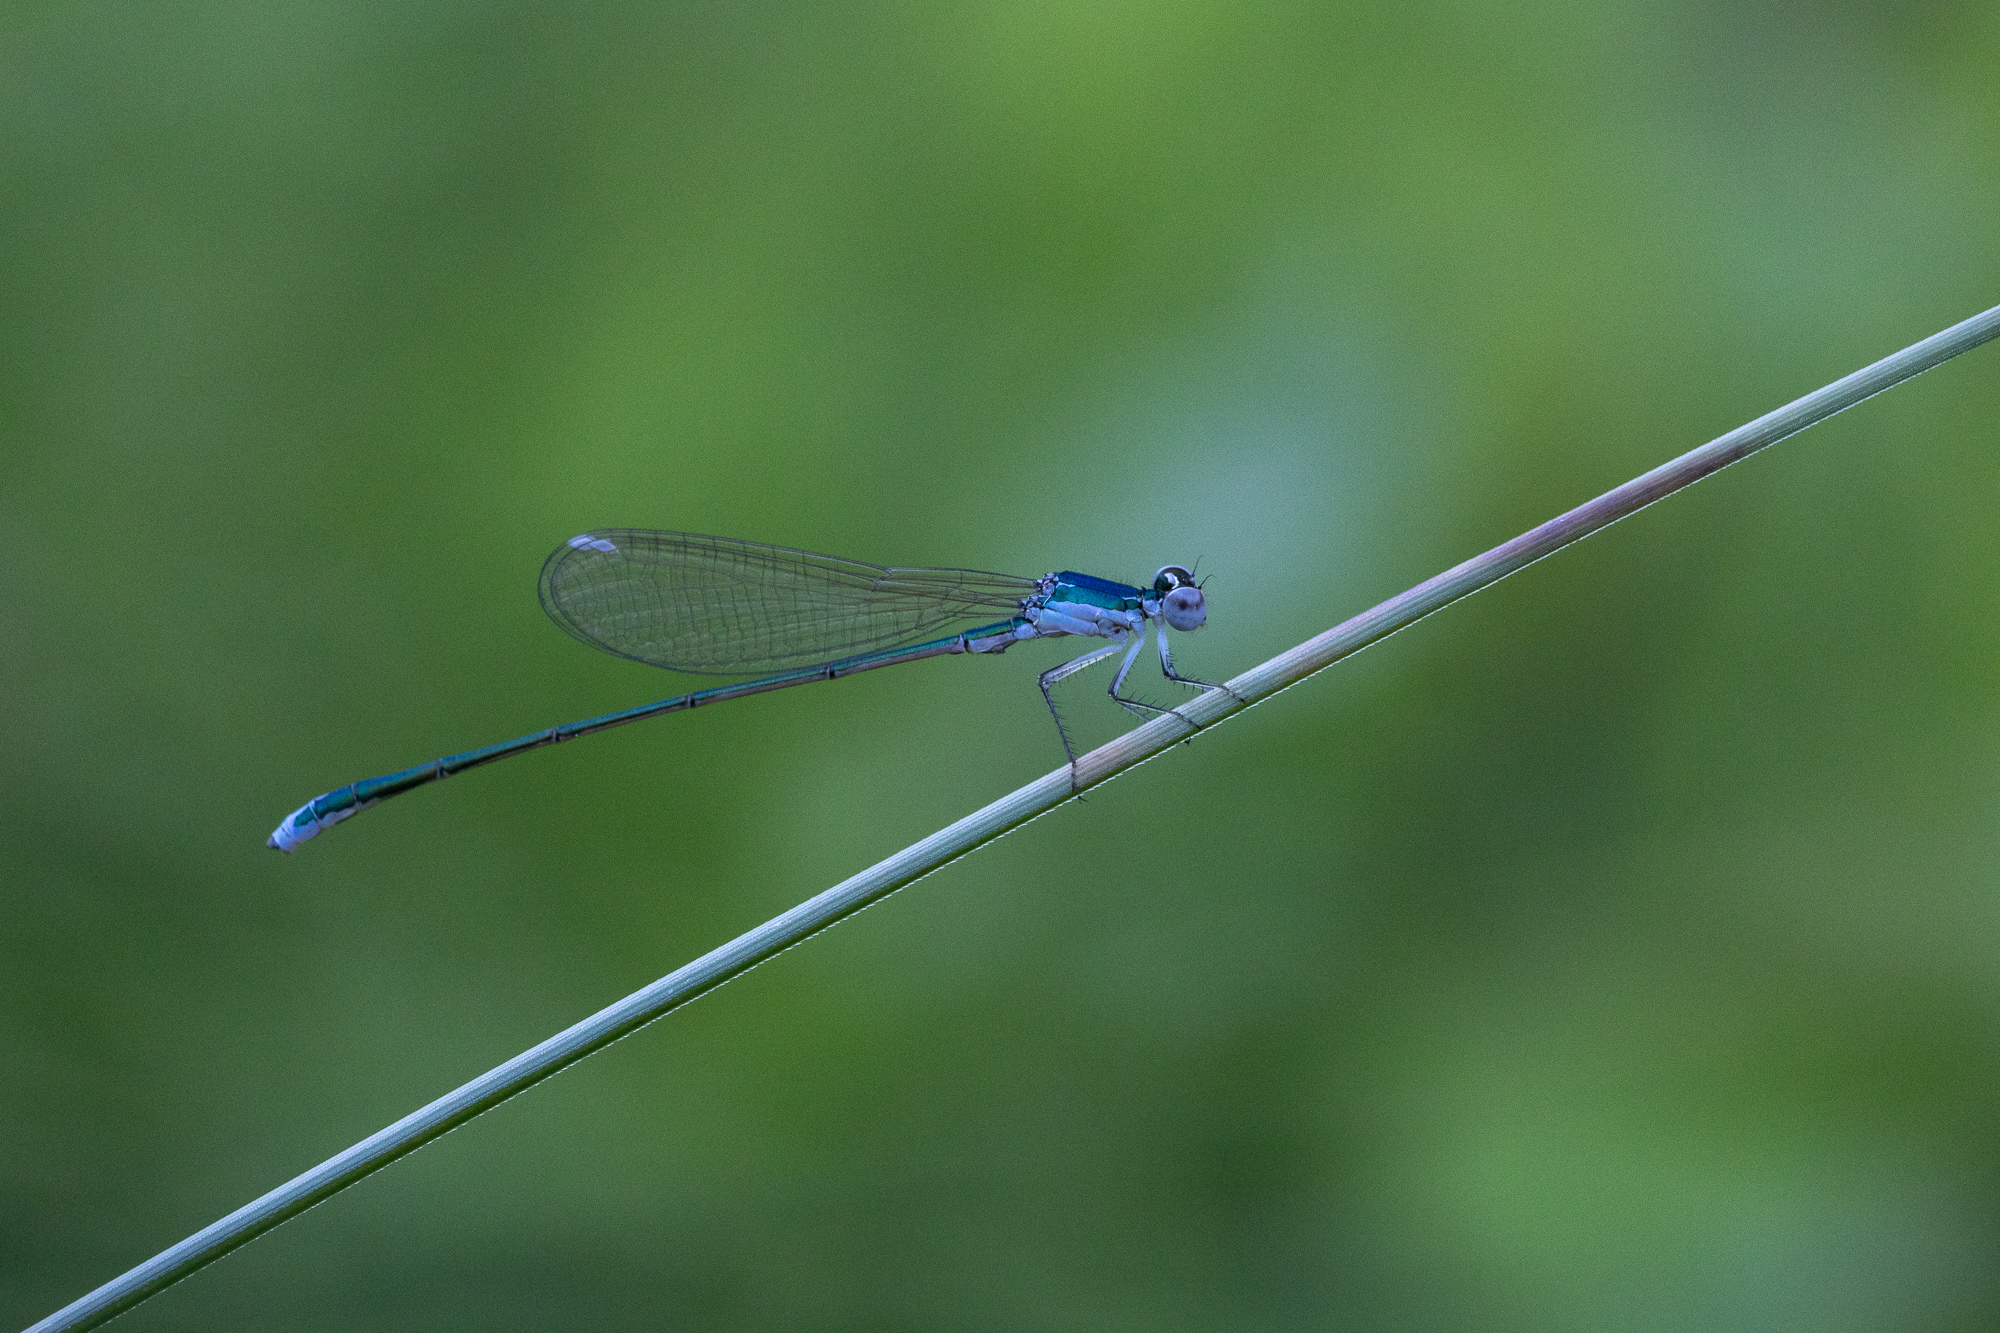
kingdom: Animalia
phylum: Arthropoda
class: Insecta
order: Odonata
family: Coenagrionidae
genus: Nehalennia
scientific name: Nehalennia speciosa
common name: Sedgling
